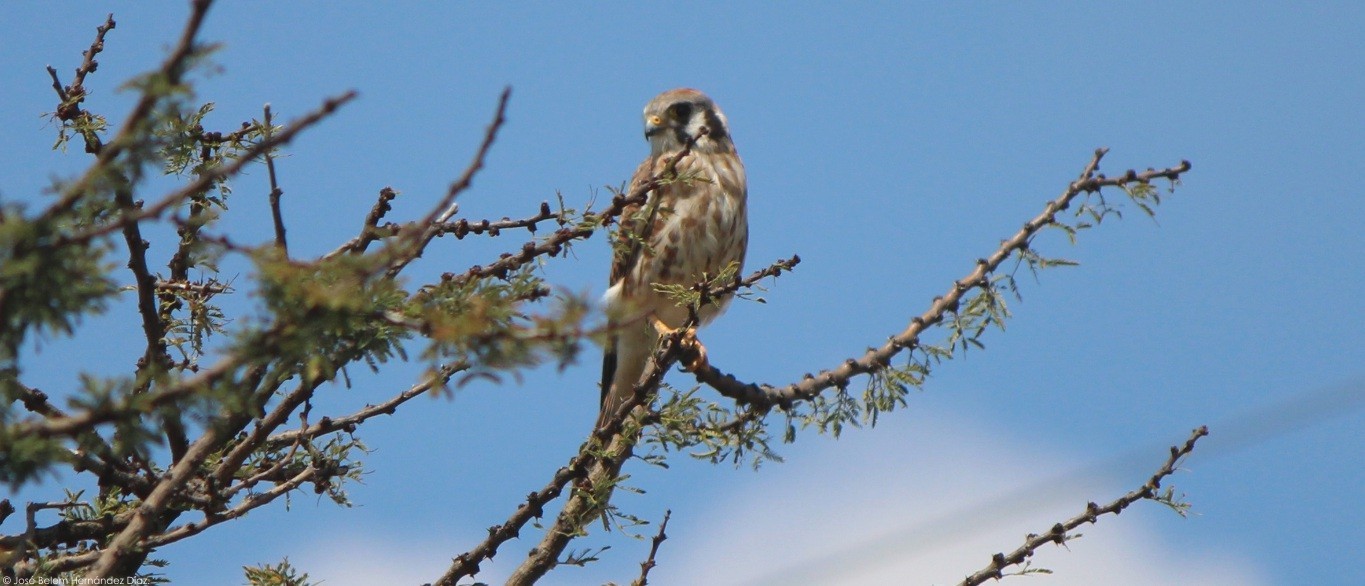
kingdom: Animalia
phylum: Chordata
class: Aves
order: Falconiformes
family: Falconidae
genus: Falco
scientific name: Falco sparverius
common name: American kestrel
